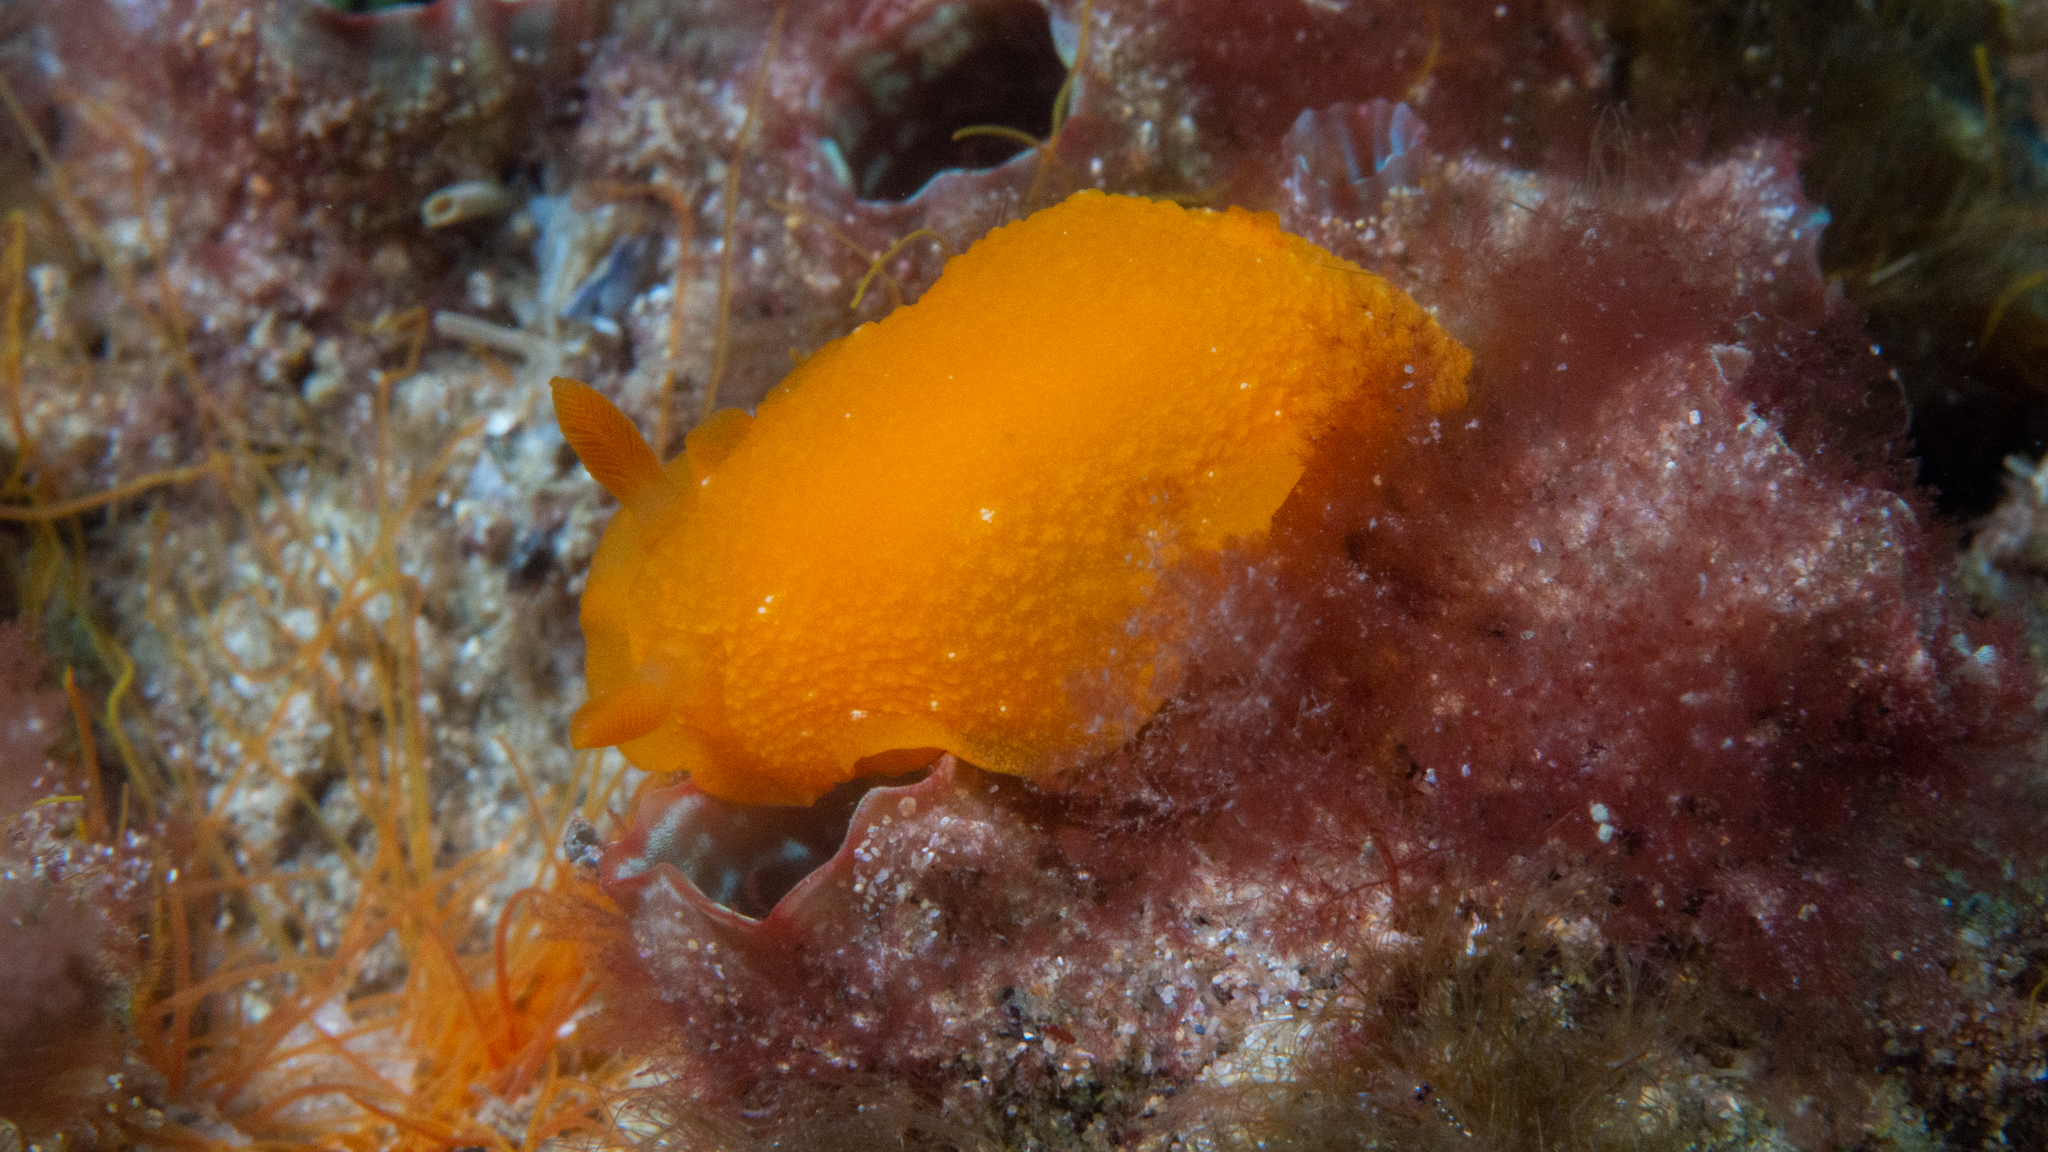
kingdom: Animalia
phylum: Mollusca
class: Gastropoda
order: Nudibranchia
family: Dendrodorididae
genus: Doriopsilla
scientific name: Doriopsilla carneola
